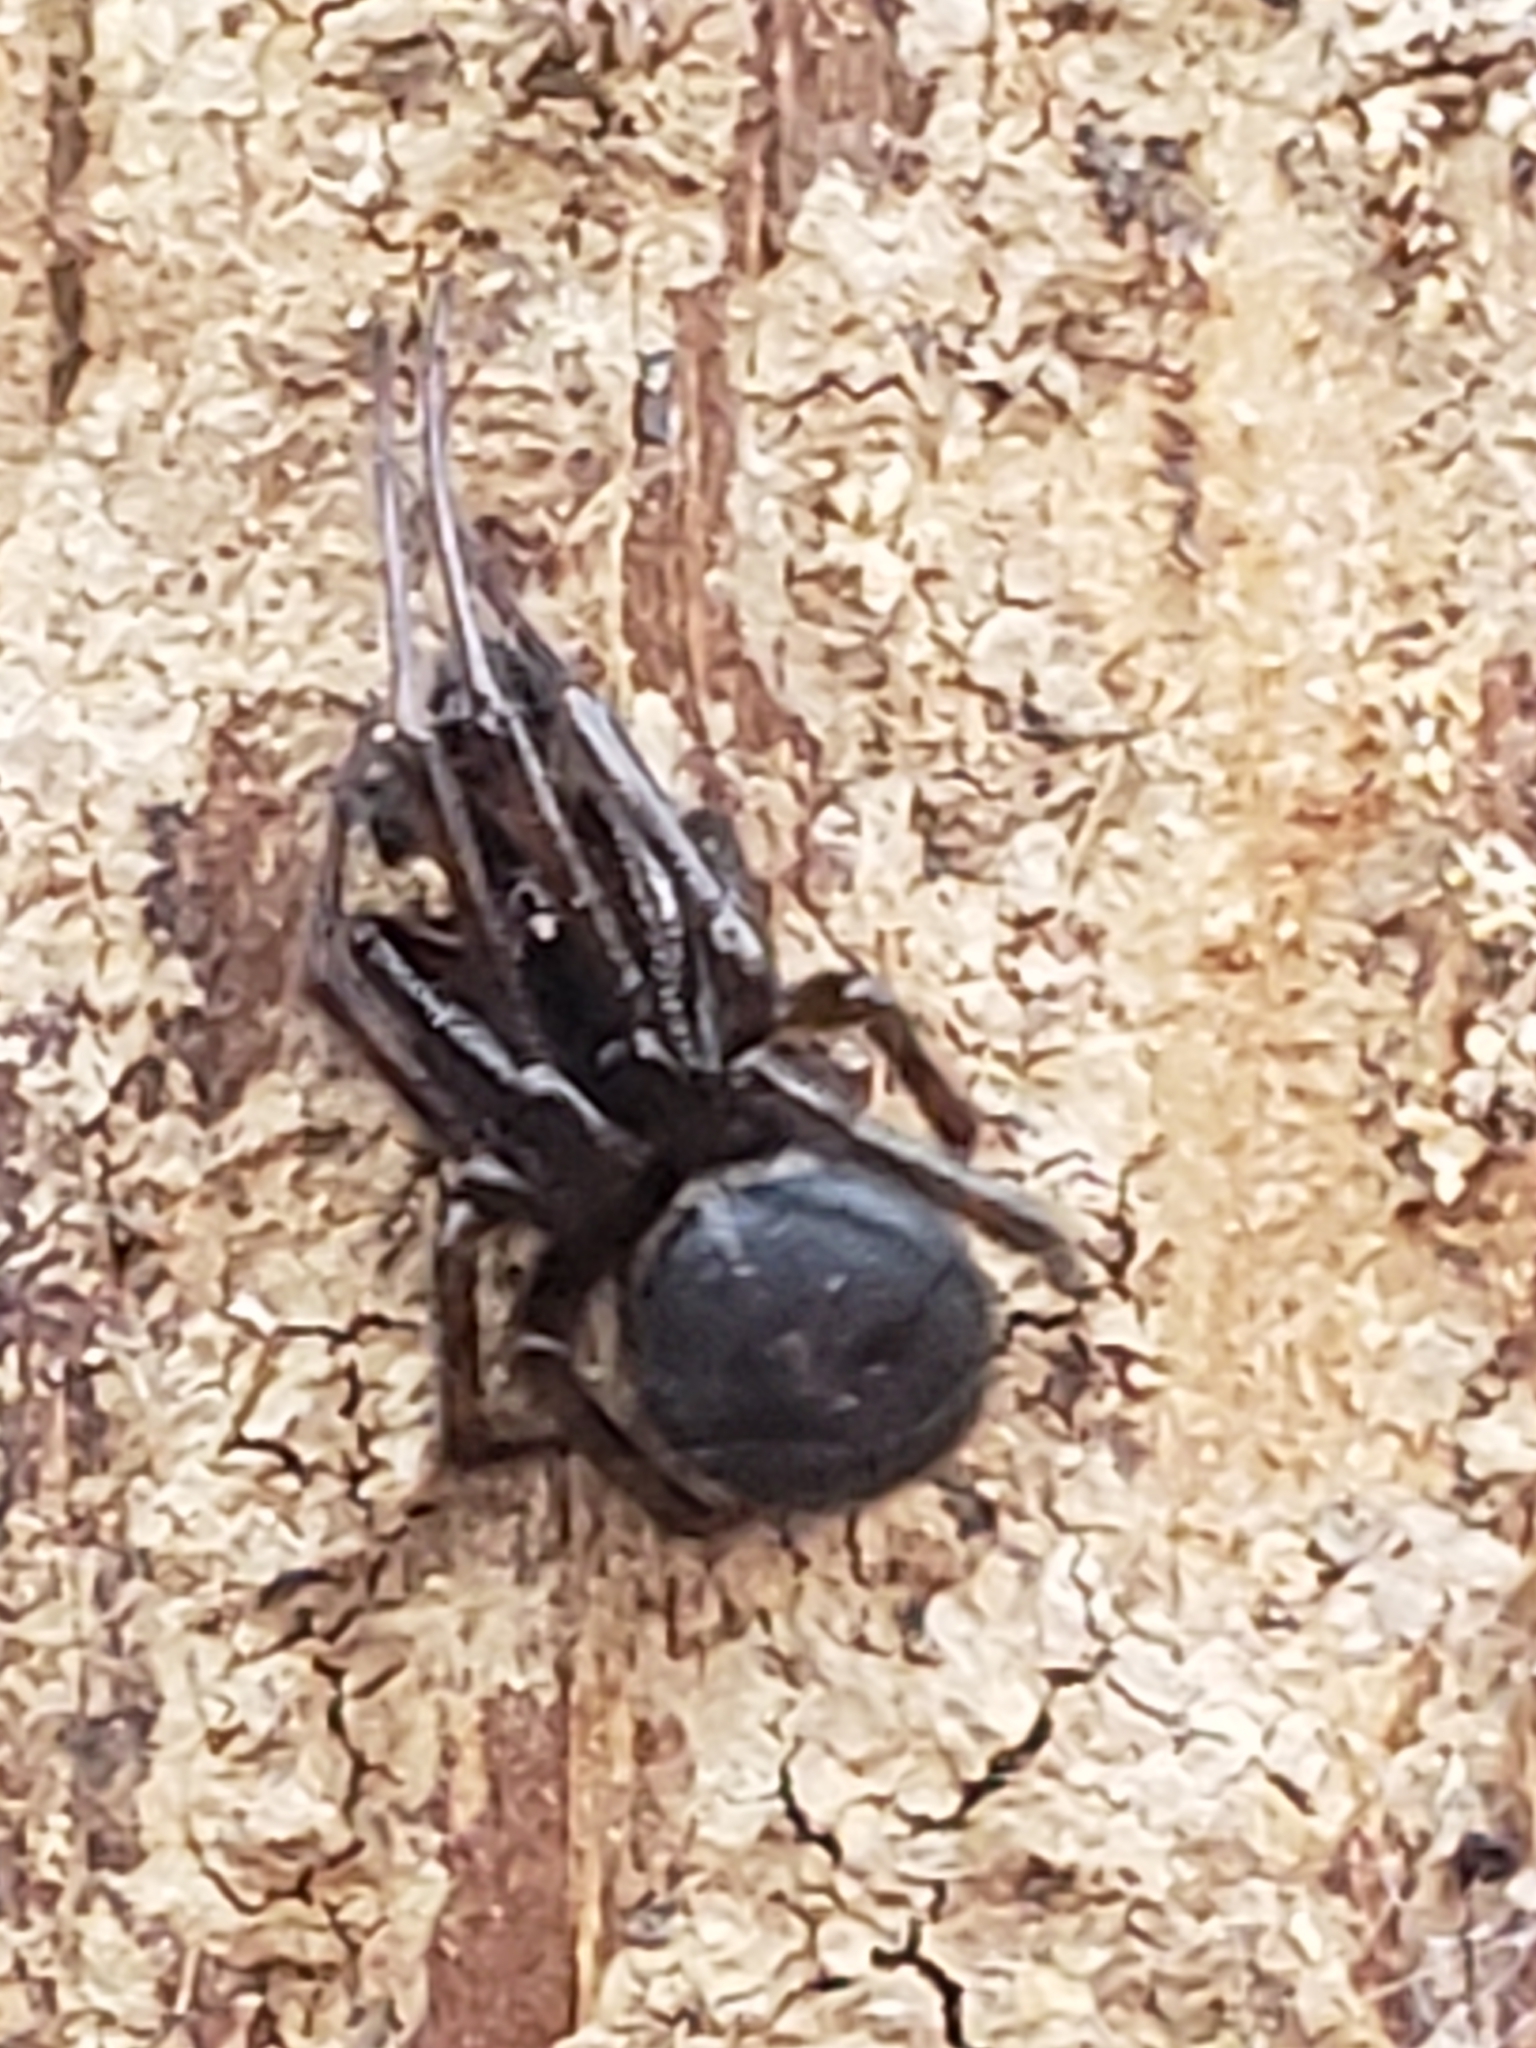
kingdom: Animalia
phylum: Arthropoda
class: Arachnida
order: Araneae
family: Theridiidae
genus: Steatoda
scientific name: Steatoda borealis
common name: Boreal combfoot
